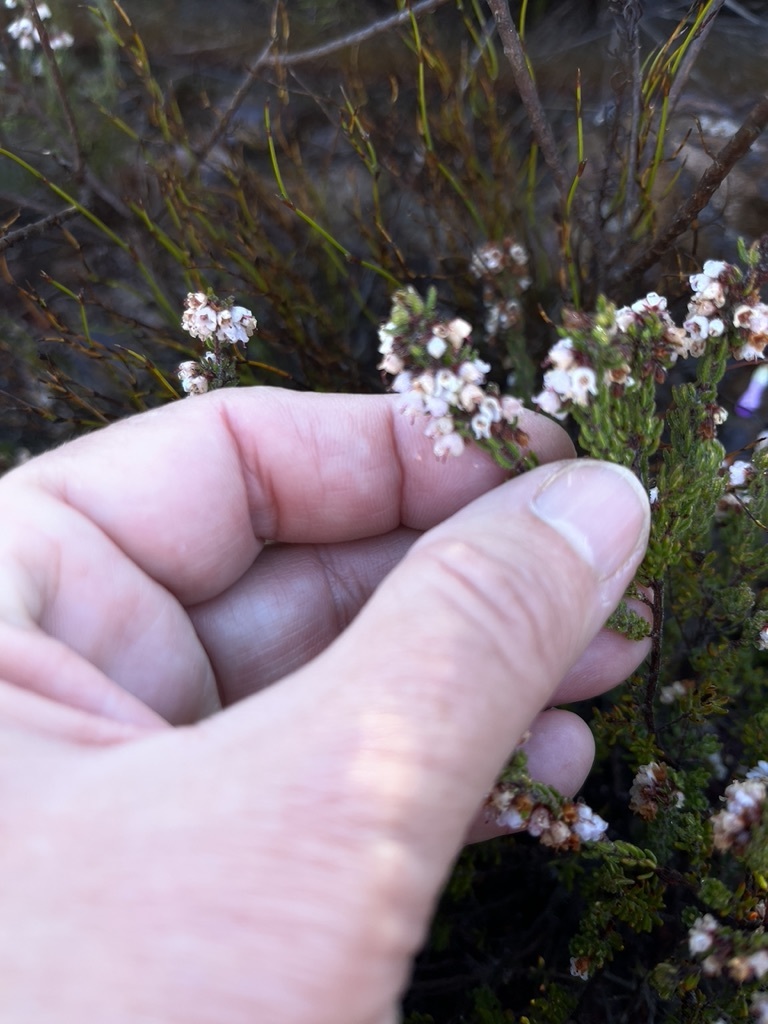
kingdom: Plantae
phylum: Tracheophyta
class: Magnoliopsida
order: Ericales
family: Ericaceae
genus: Erica
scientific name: Erica distorta
